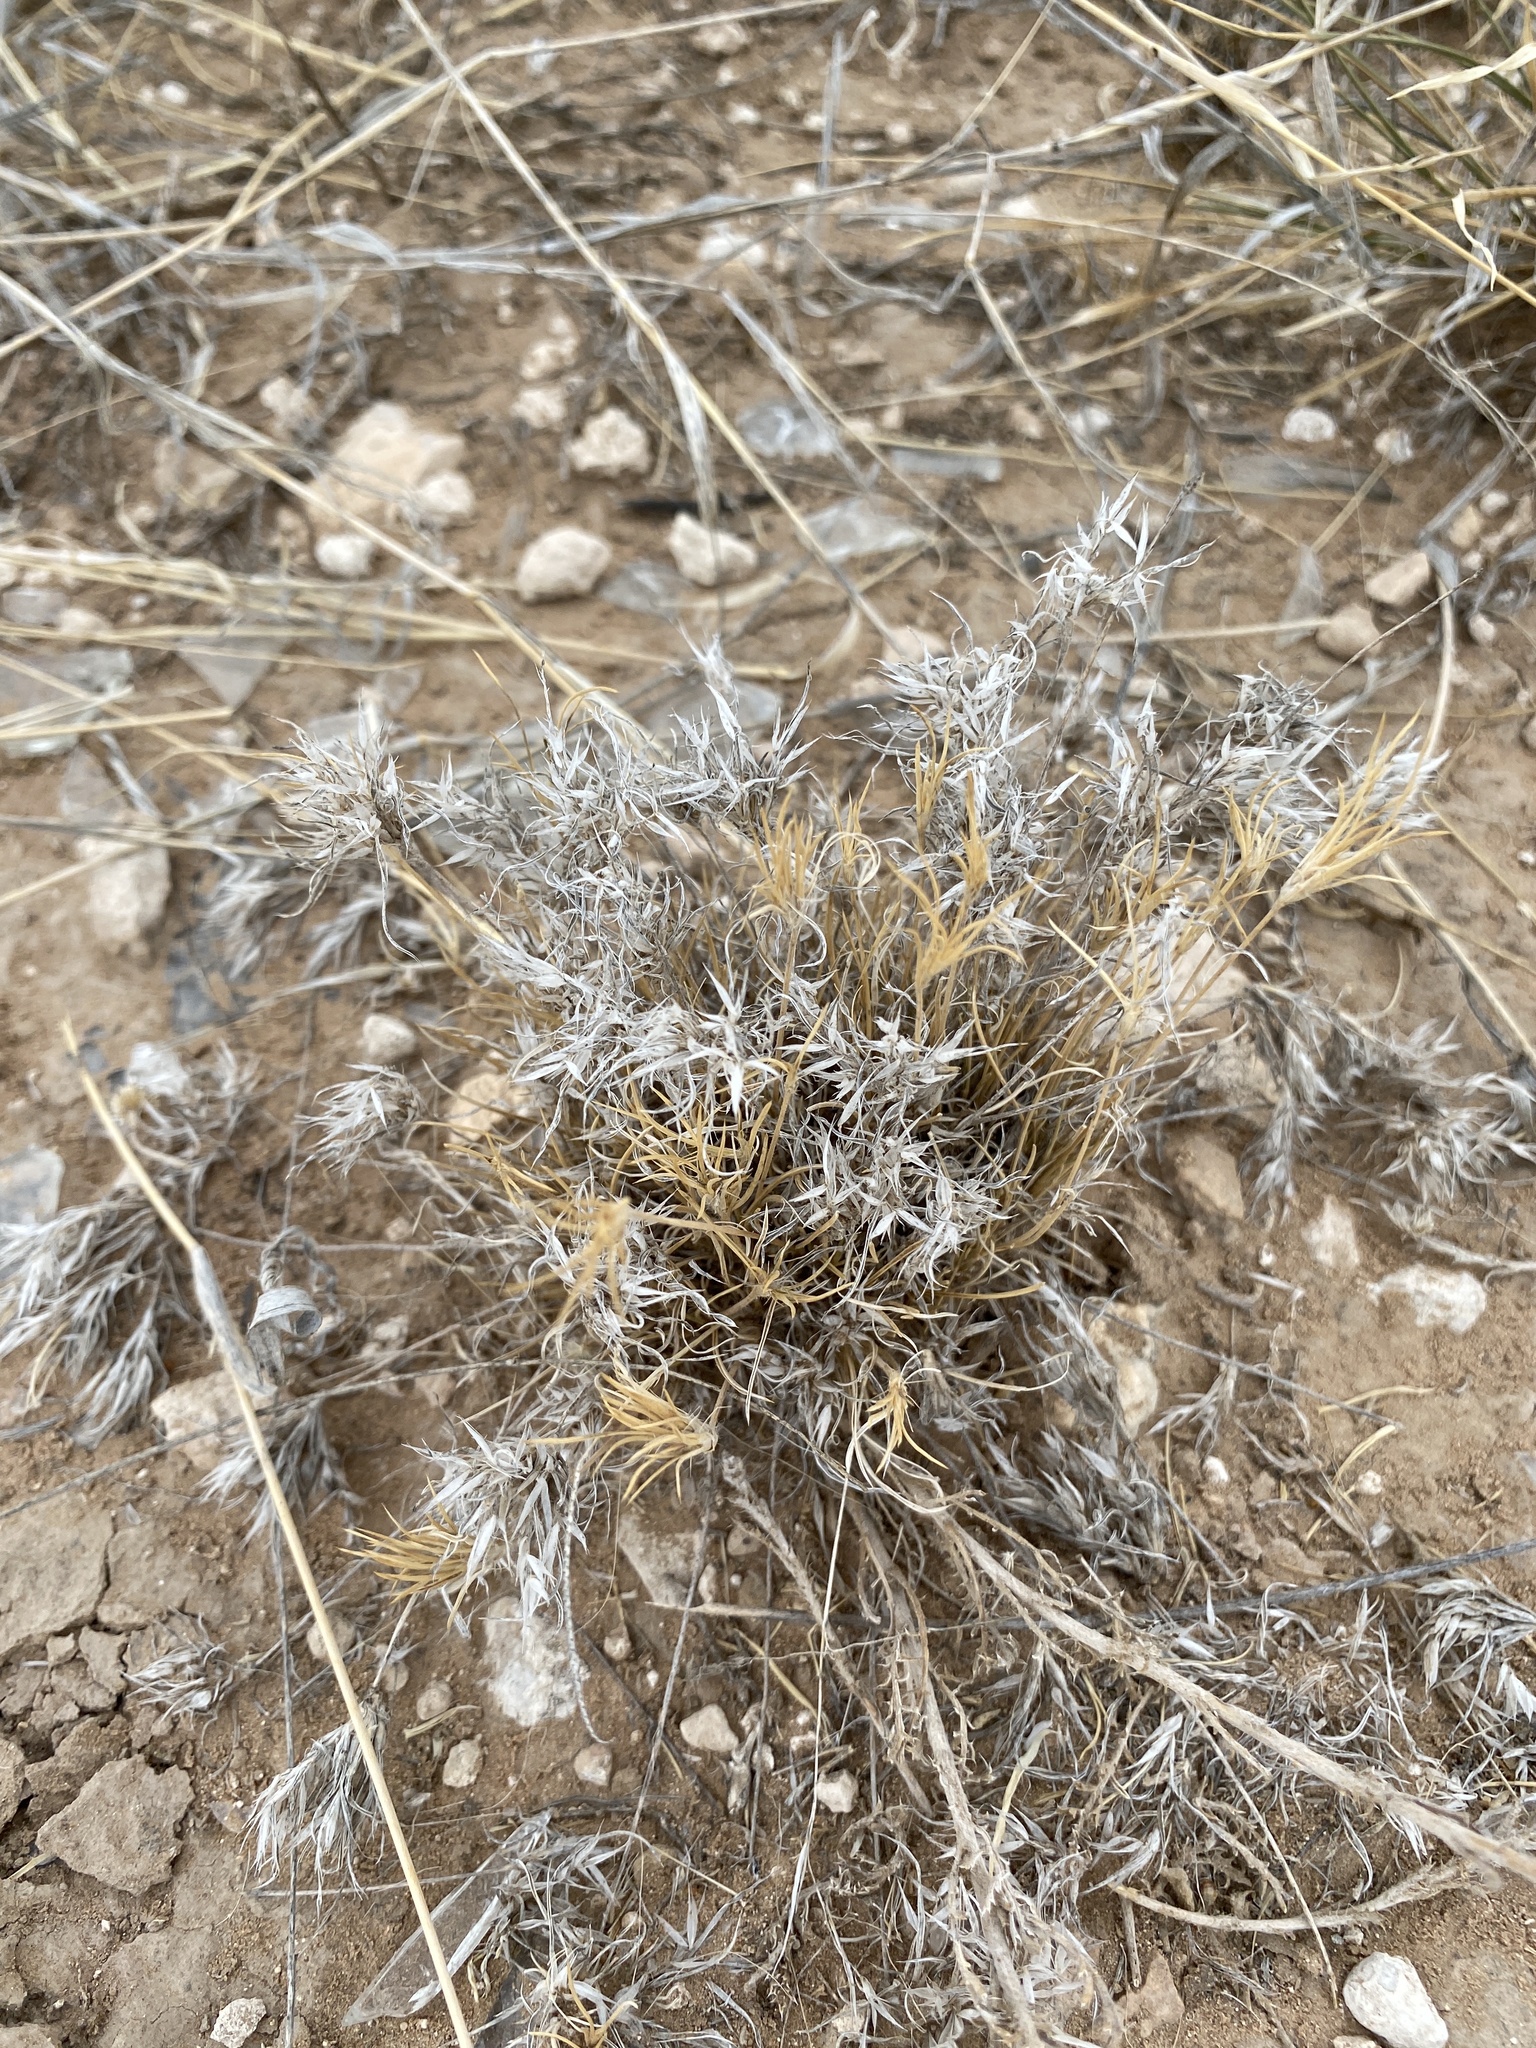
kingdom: Plantae
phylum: Tracheophyta
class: Liliopsida
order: Poales
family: Poaceae
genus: Dasyochloa
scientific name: Dasyochloa pulchella
